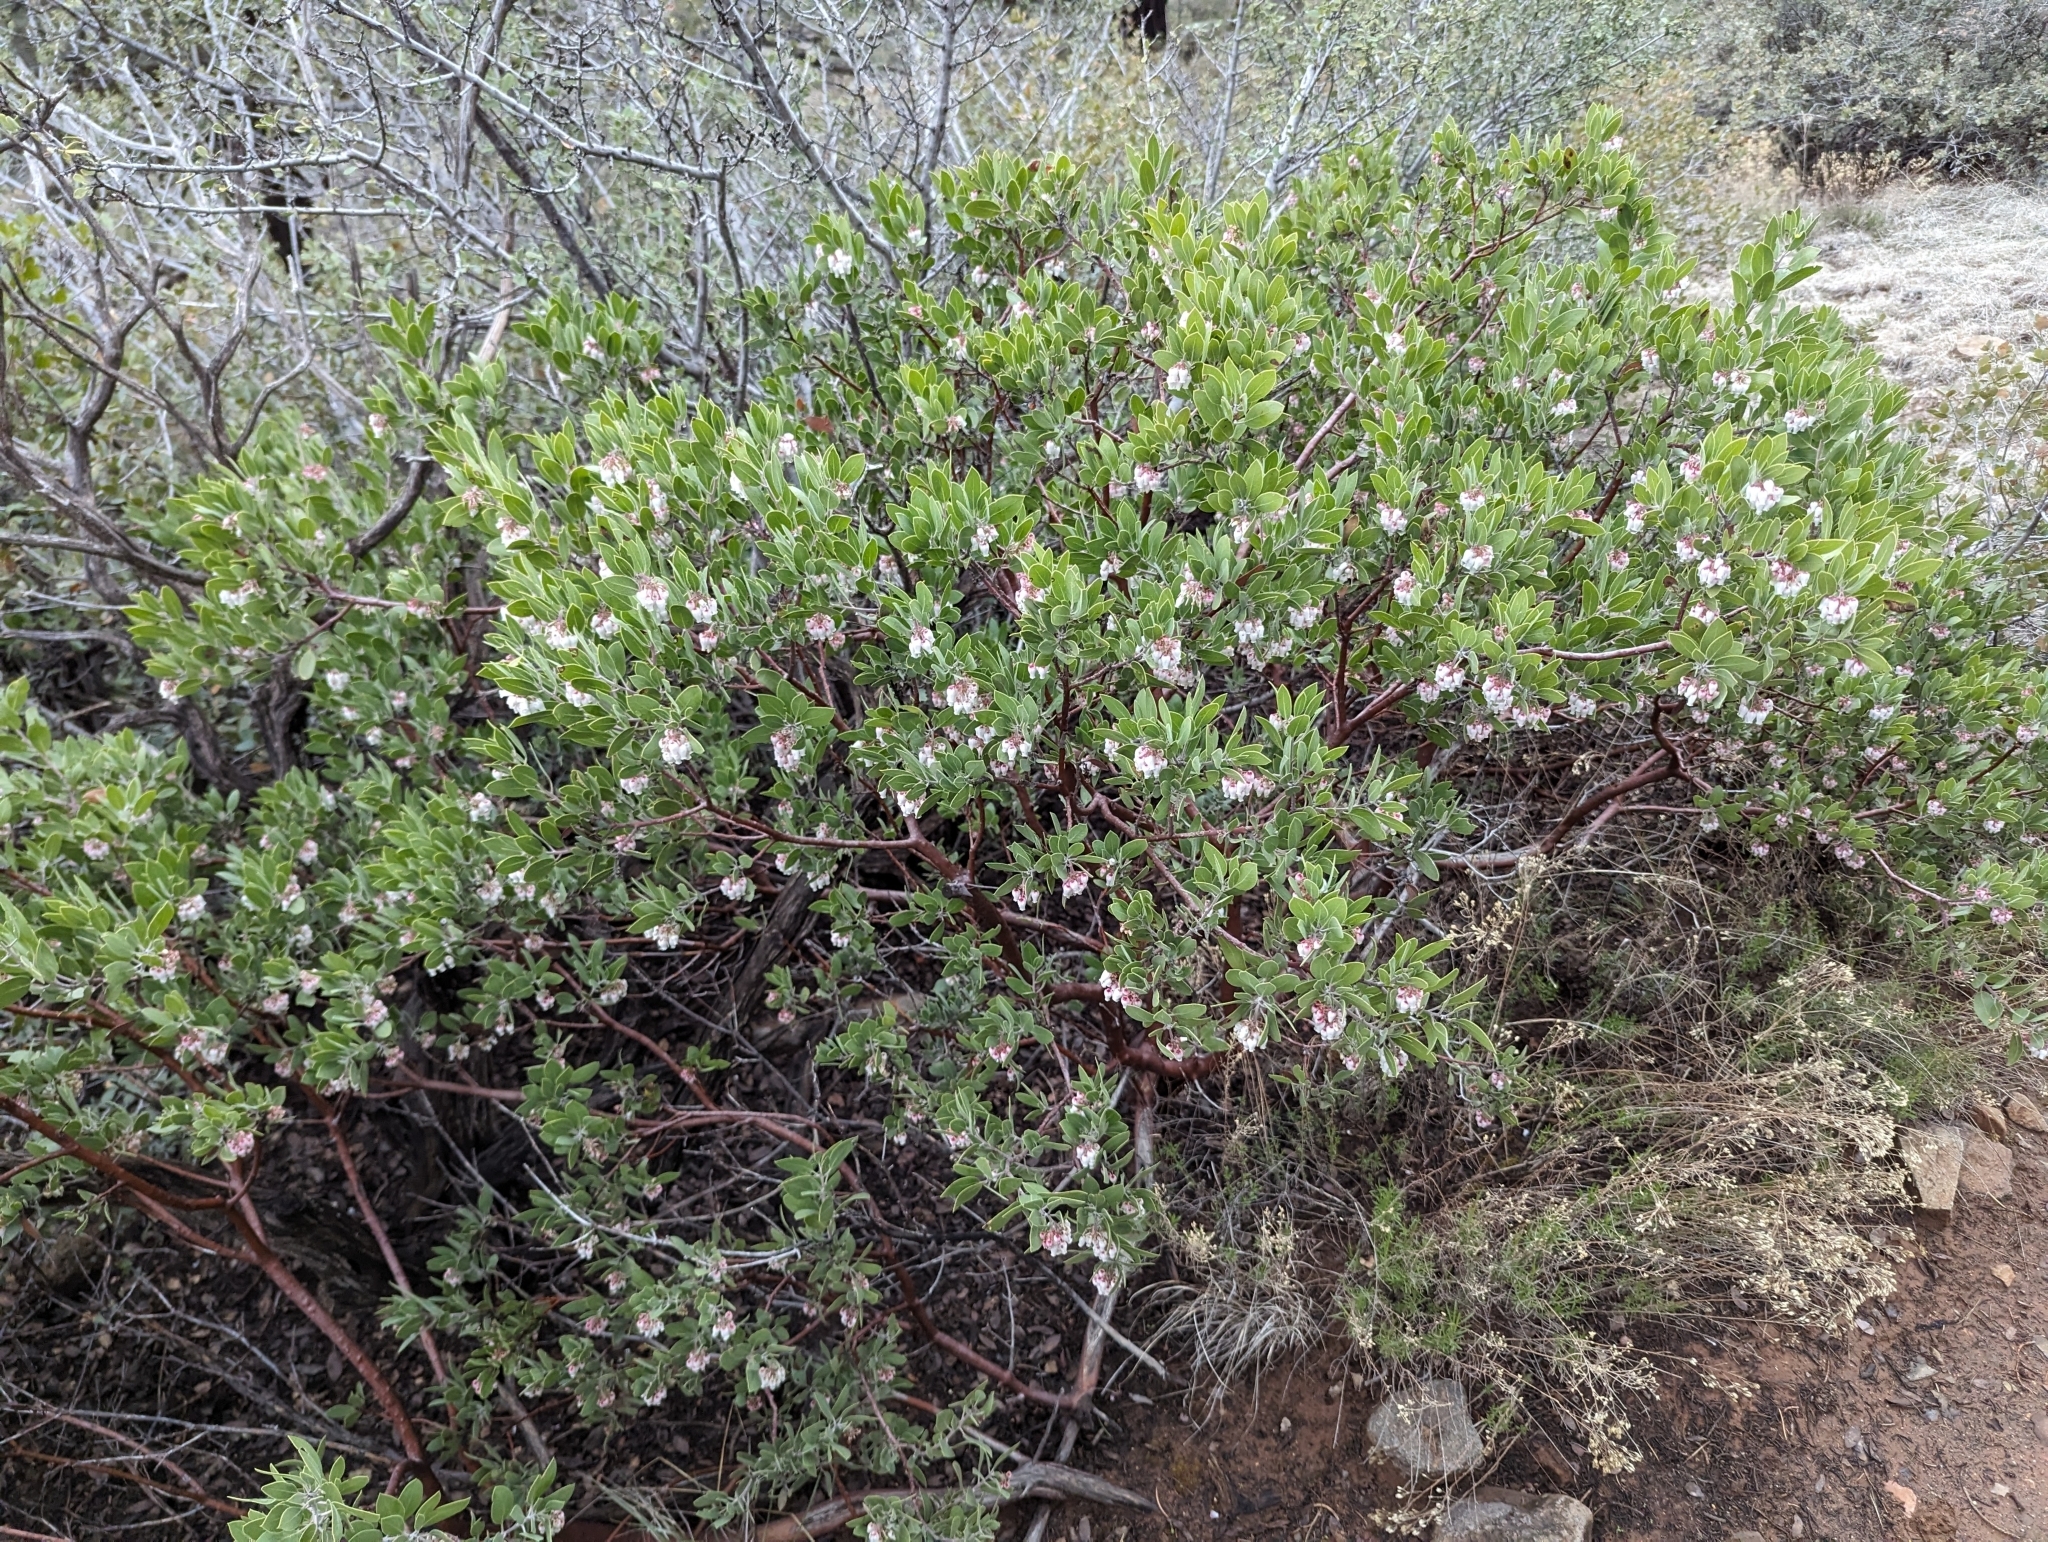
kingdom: Plantae
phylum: Tracheophyta
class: Magnoliopsida
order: Ericales
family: Ericaceae
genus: Arctostaphylos
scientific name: Arctostaphylos pungens
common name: Mexican manzanita
